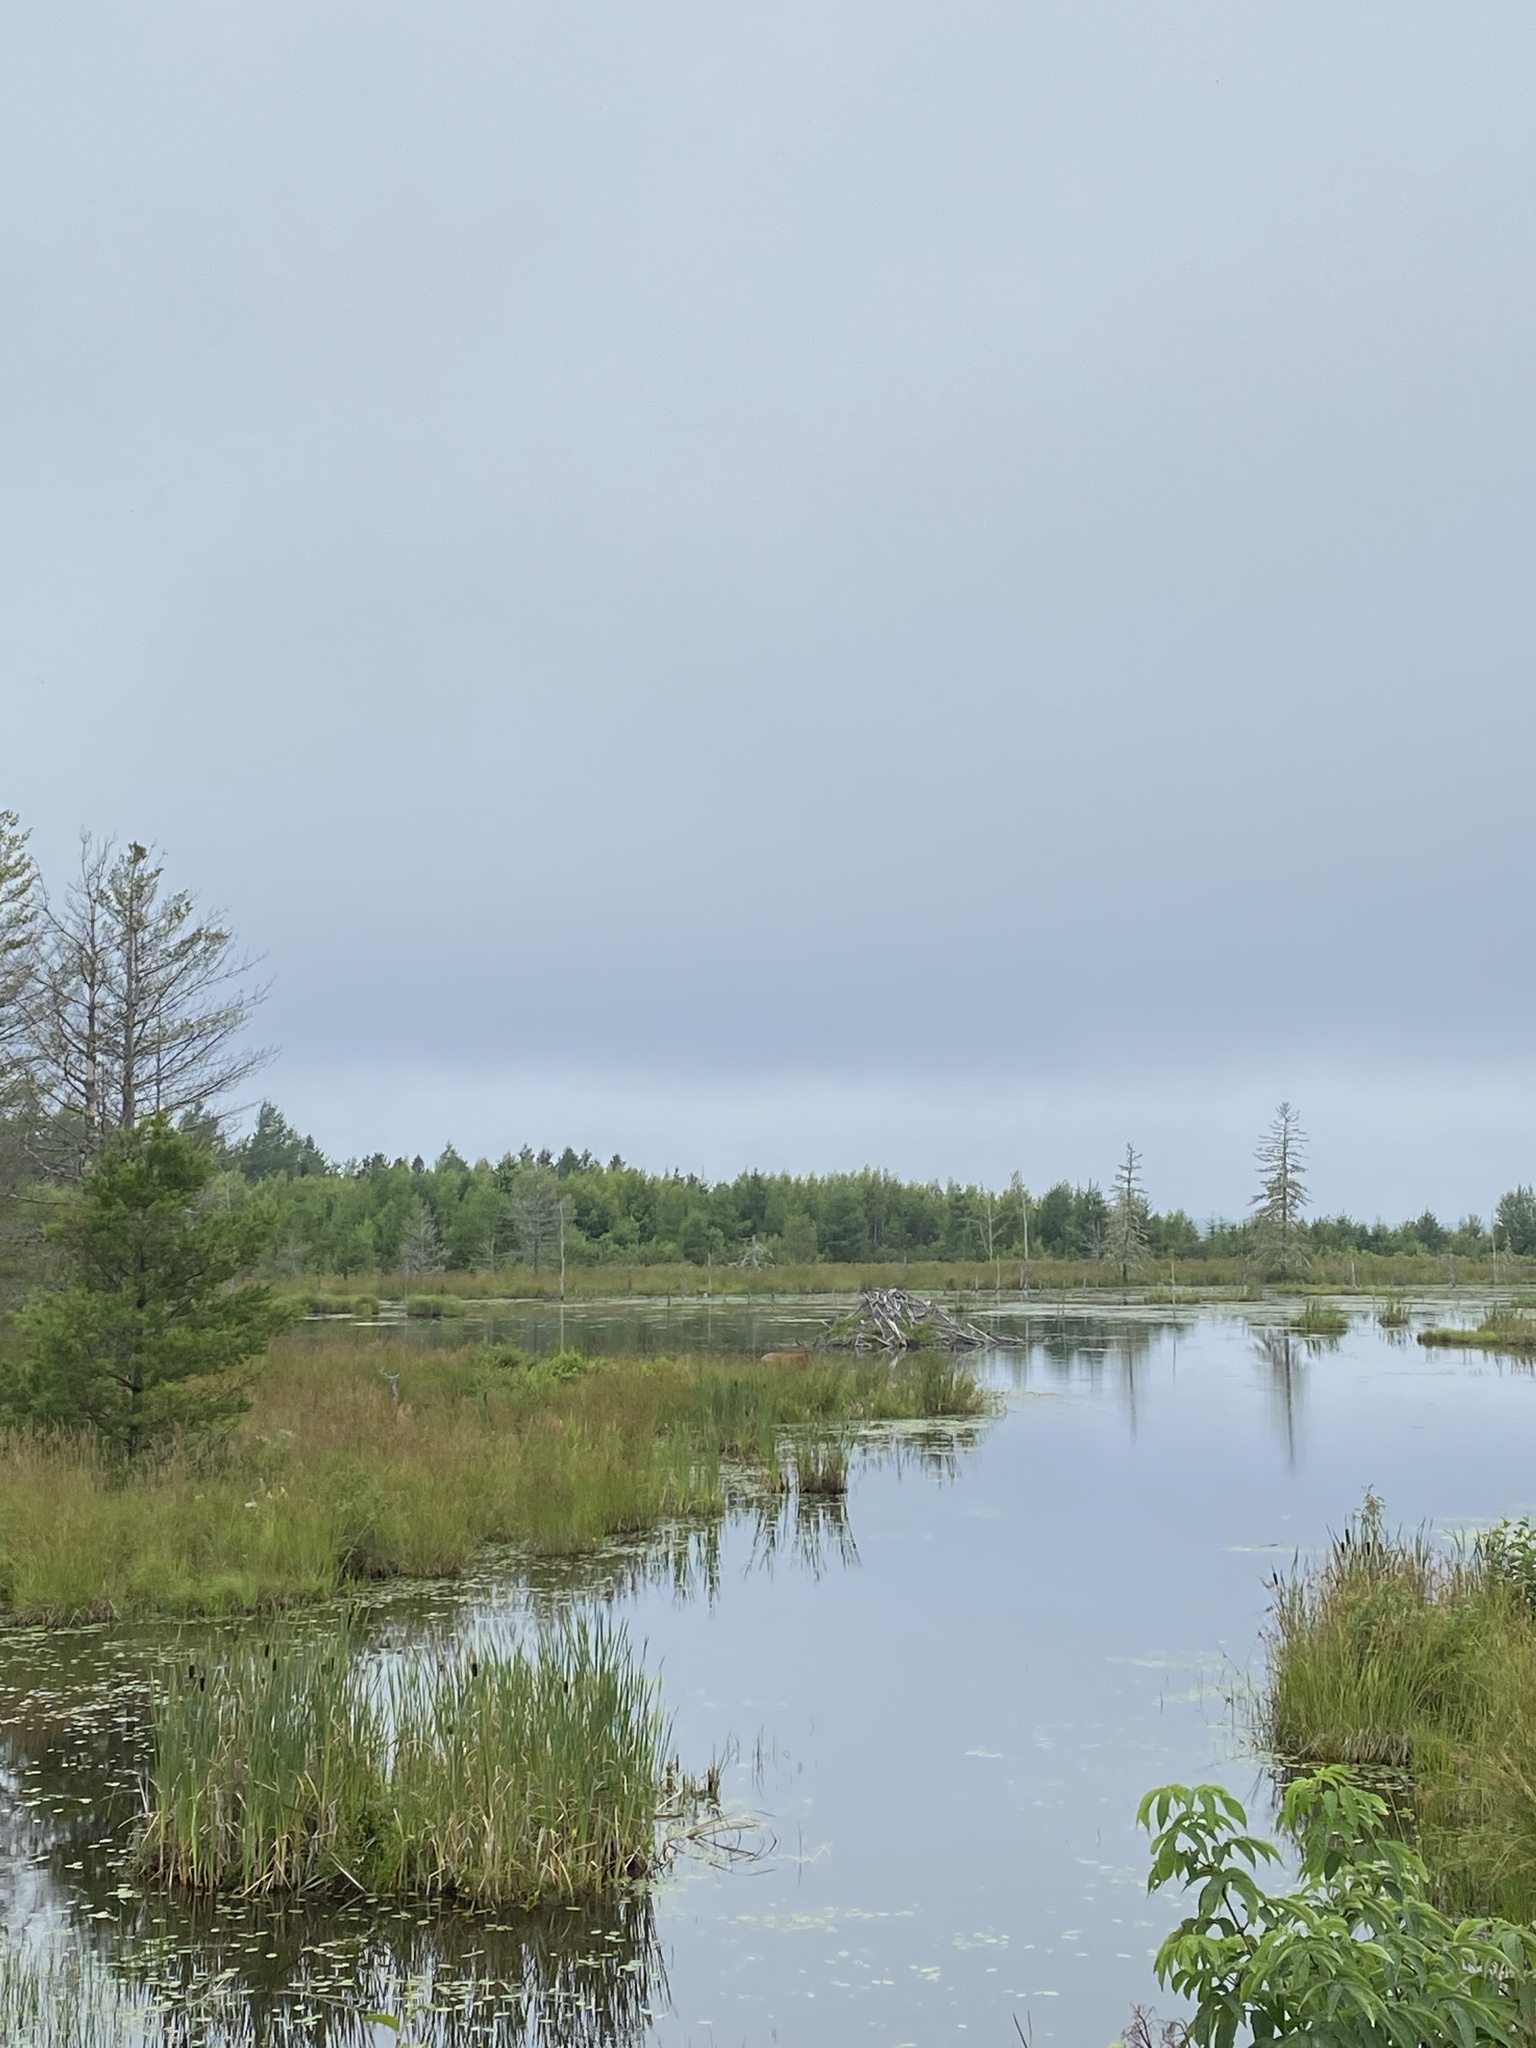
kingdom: Animalia
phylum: Chordata
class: Mammalia
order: Artiodactyla
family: Cervidae
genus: Odocoileus
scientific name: Odocoileus virginianus
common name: White-tailed deer
